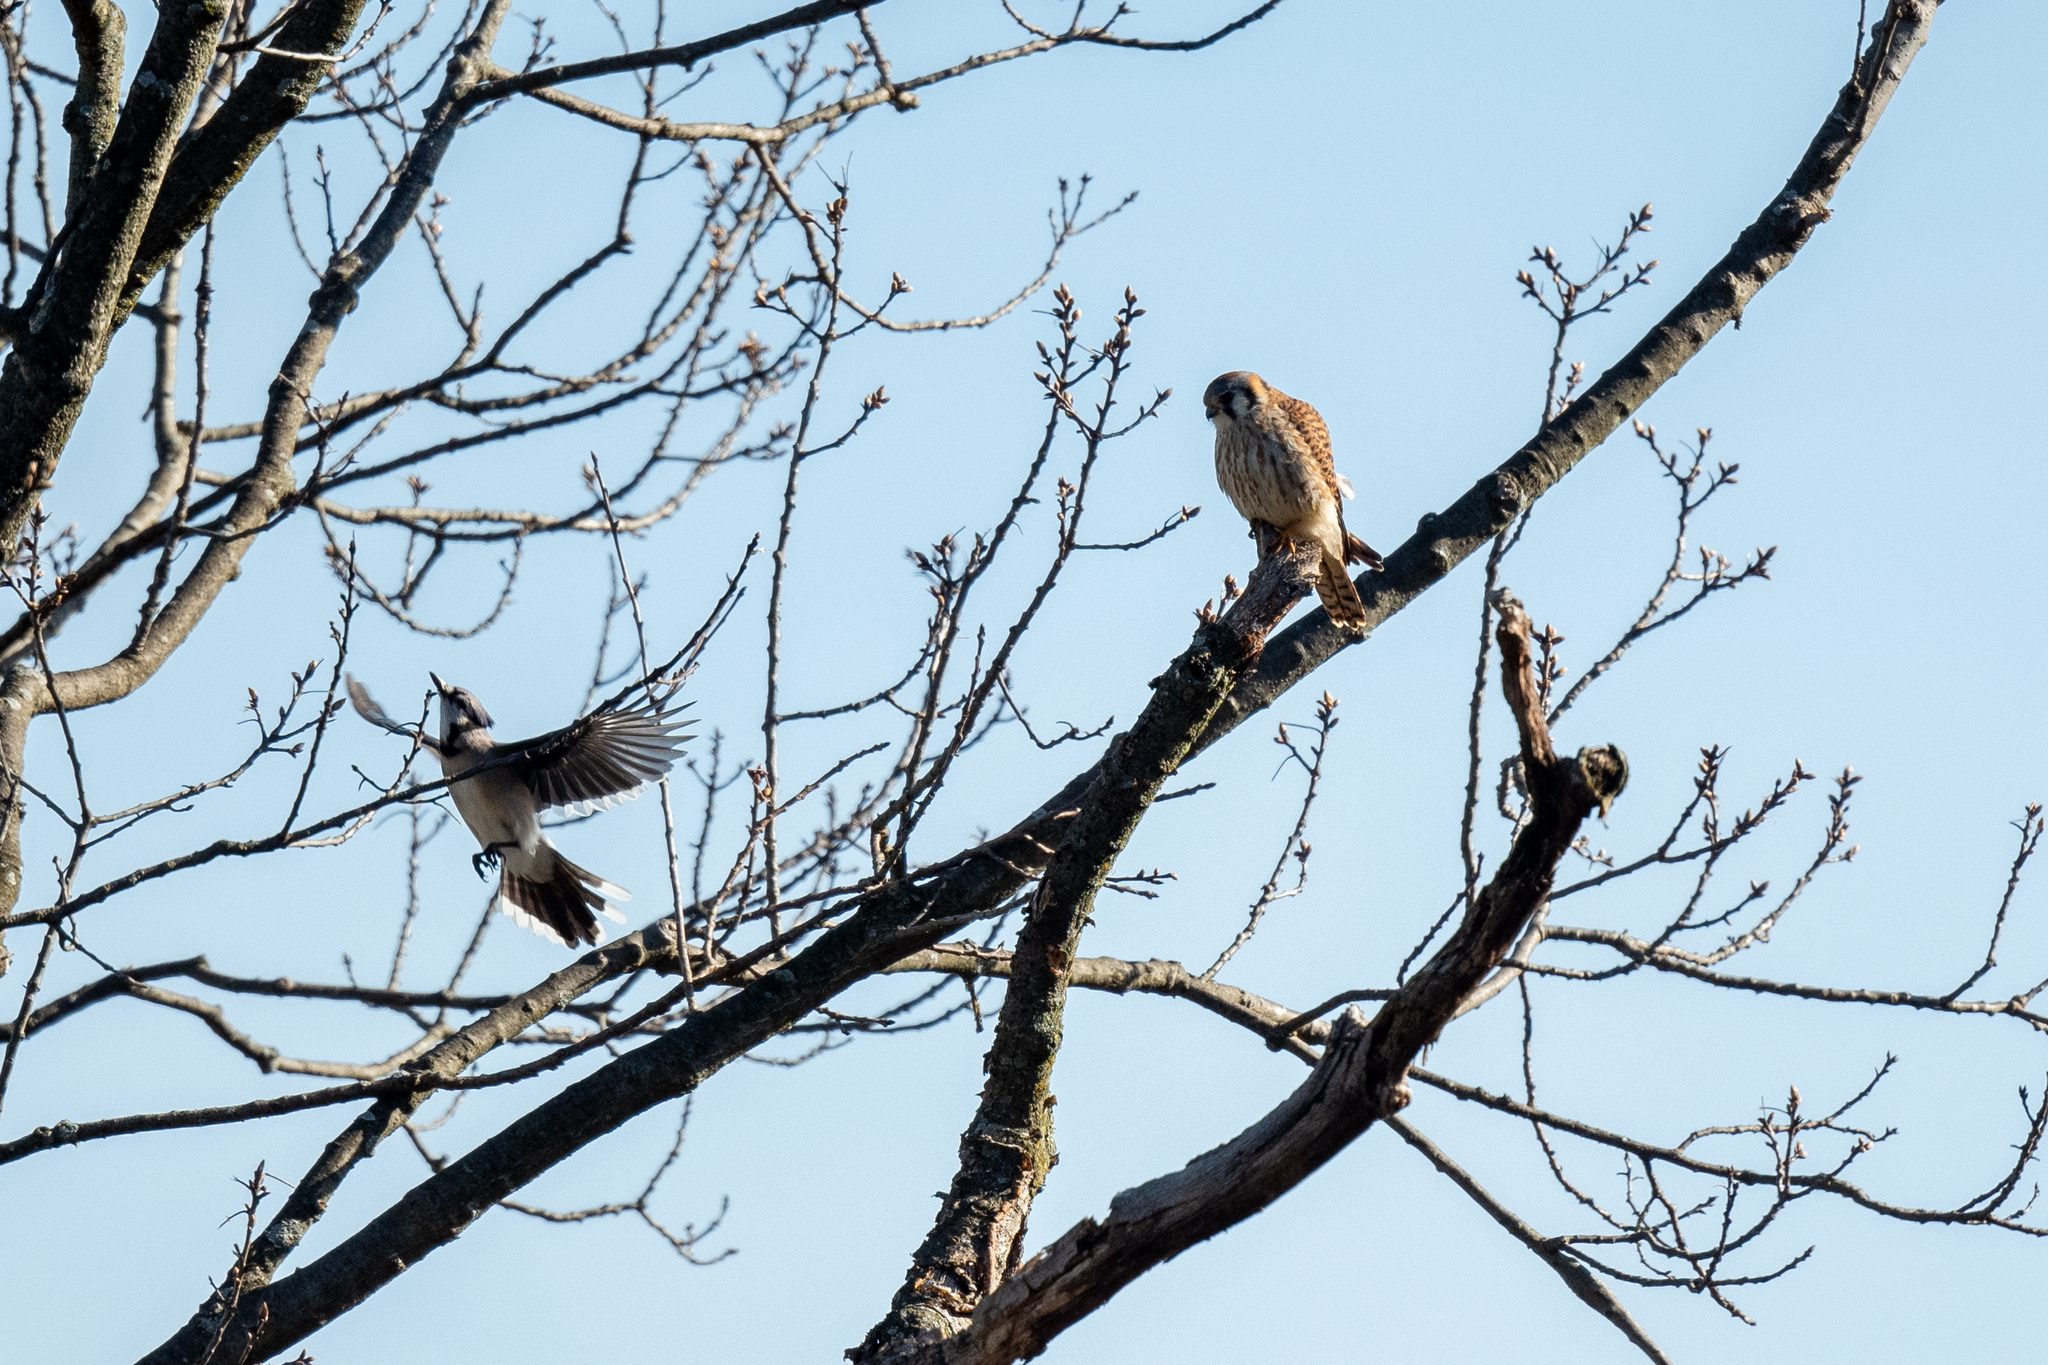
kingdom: Animalia
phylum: Chordata
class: Aves
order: Passeriformes
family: Corvidae
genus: Cyanocitta
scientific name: Cyanocitta cristata
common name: Blue jay
